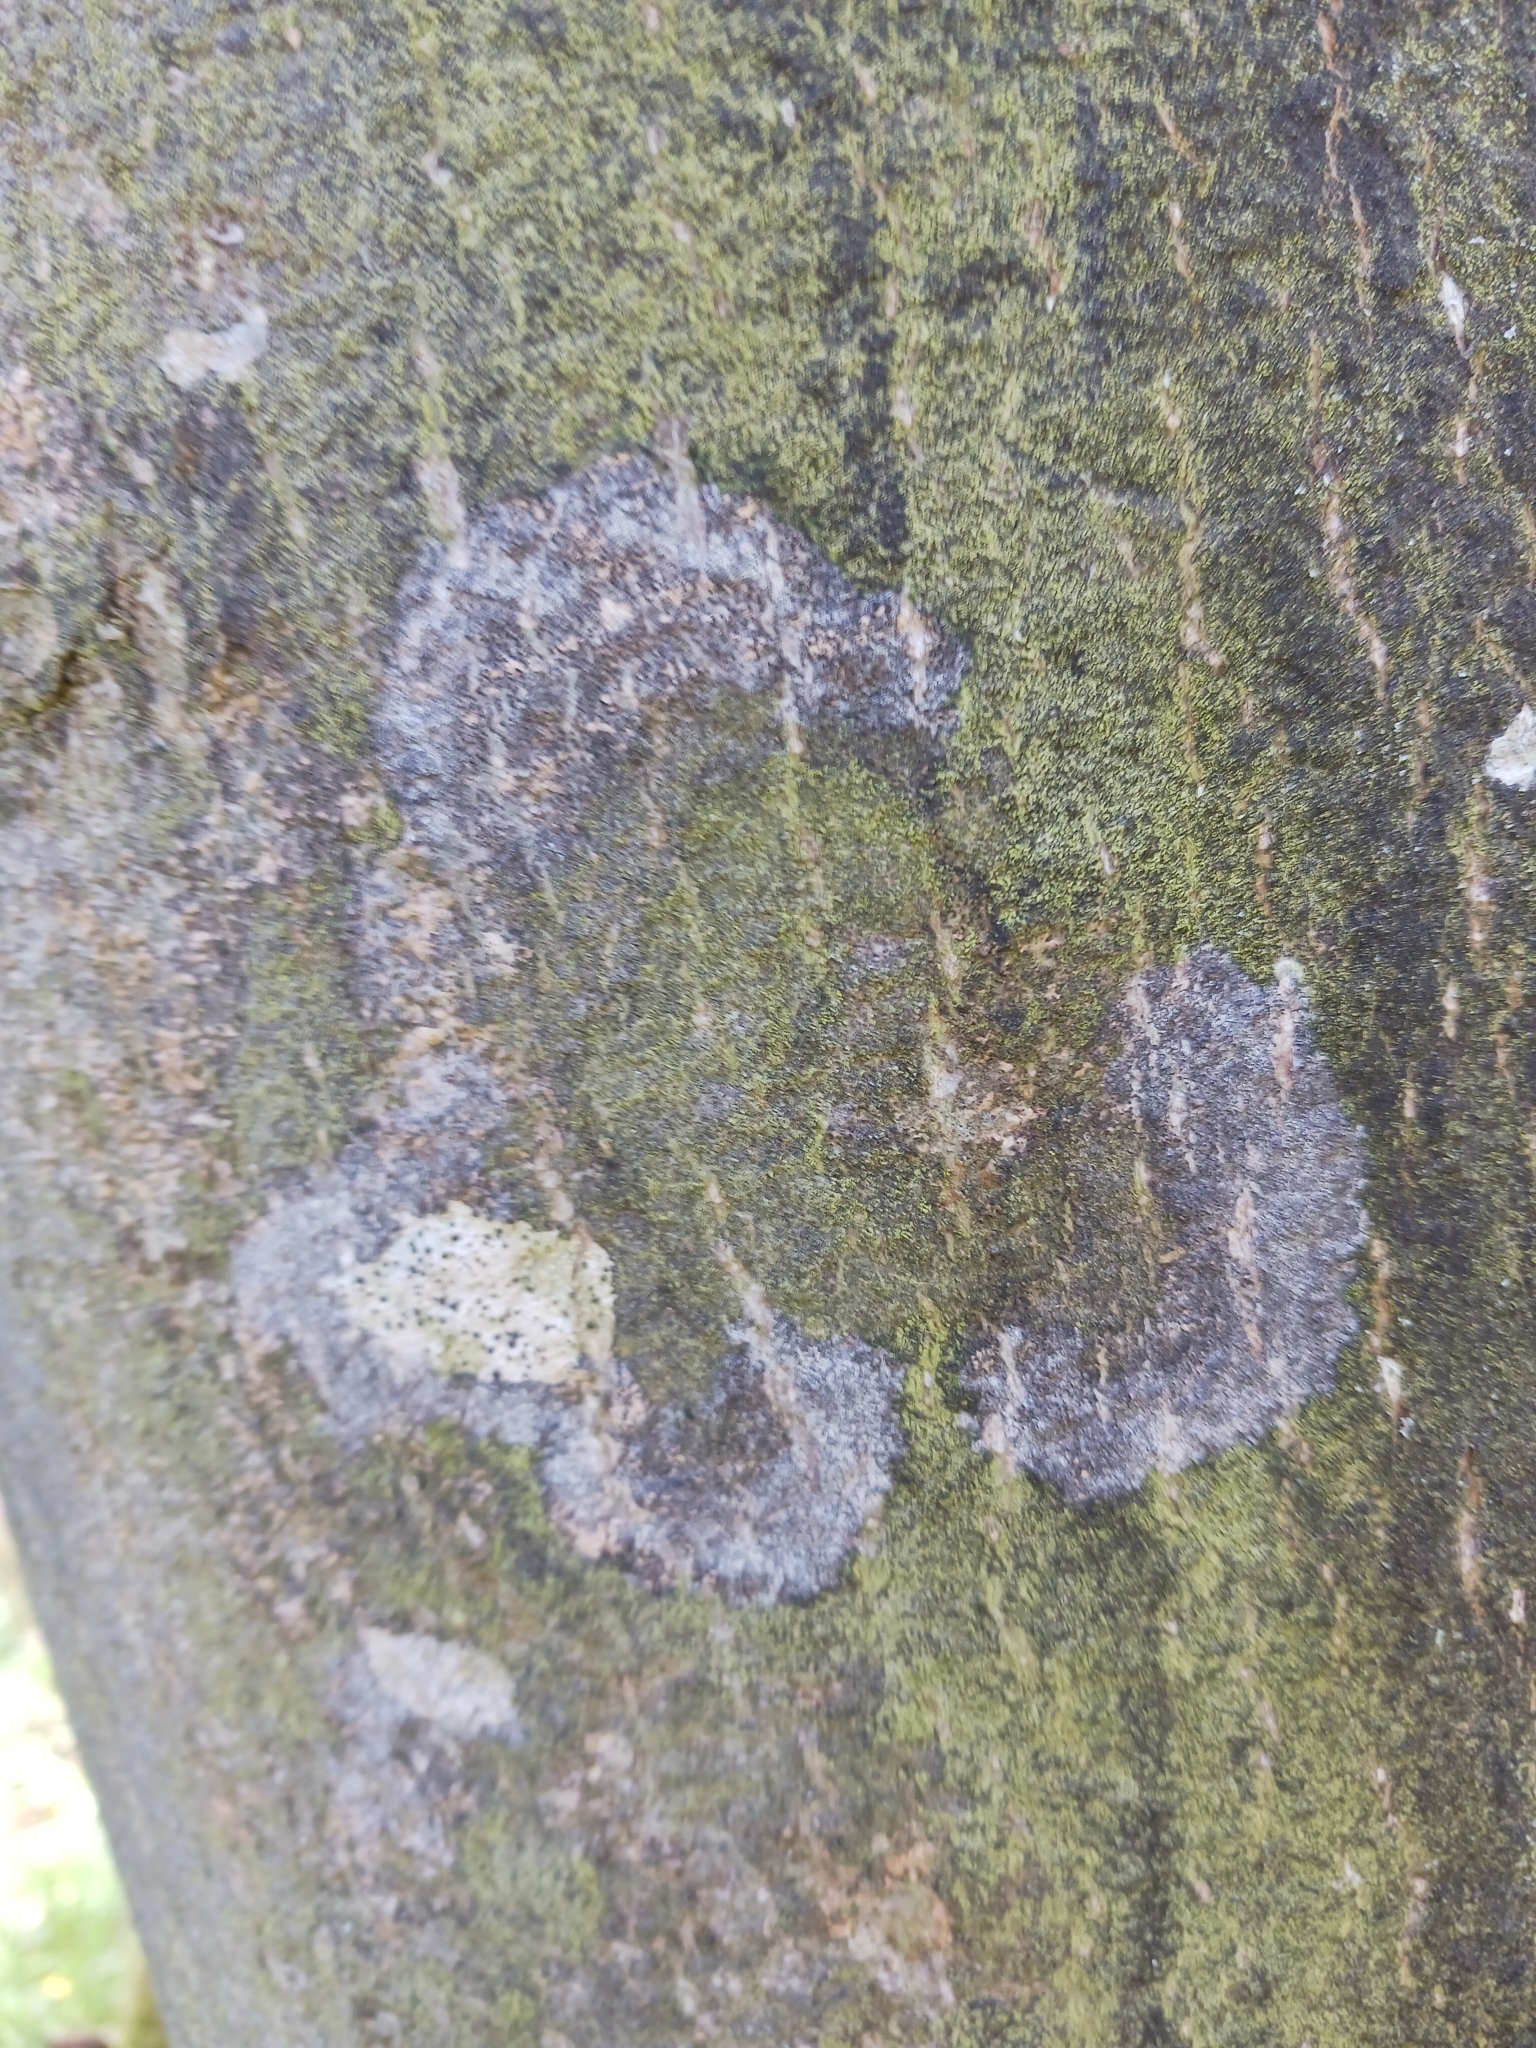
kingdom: Fungi
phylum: Basidiomycota
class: Agaricomycetes
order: Atheliales
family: Atheliaceae
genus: Athelia
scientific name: Athelia arachnoidea
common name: Candelabra duster
